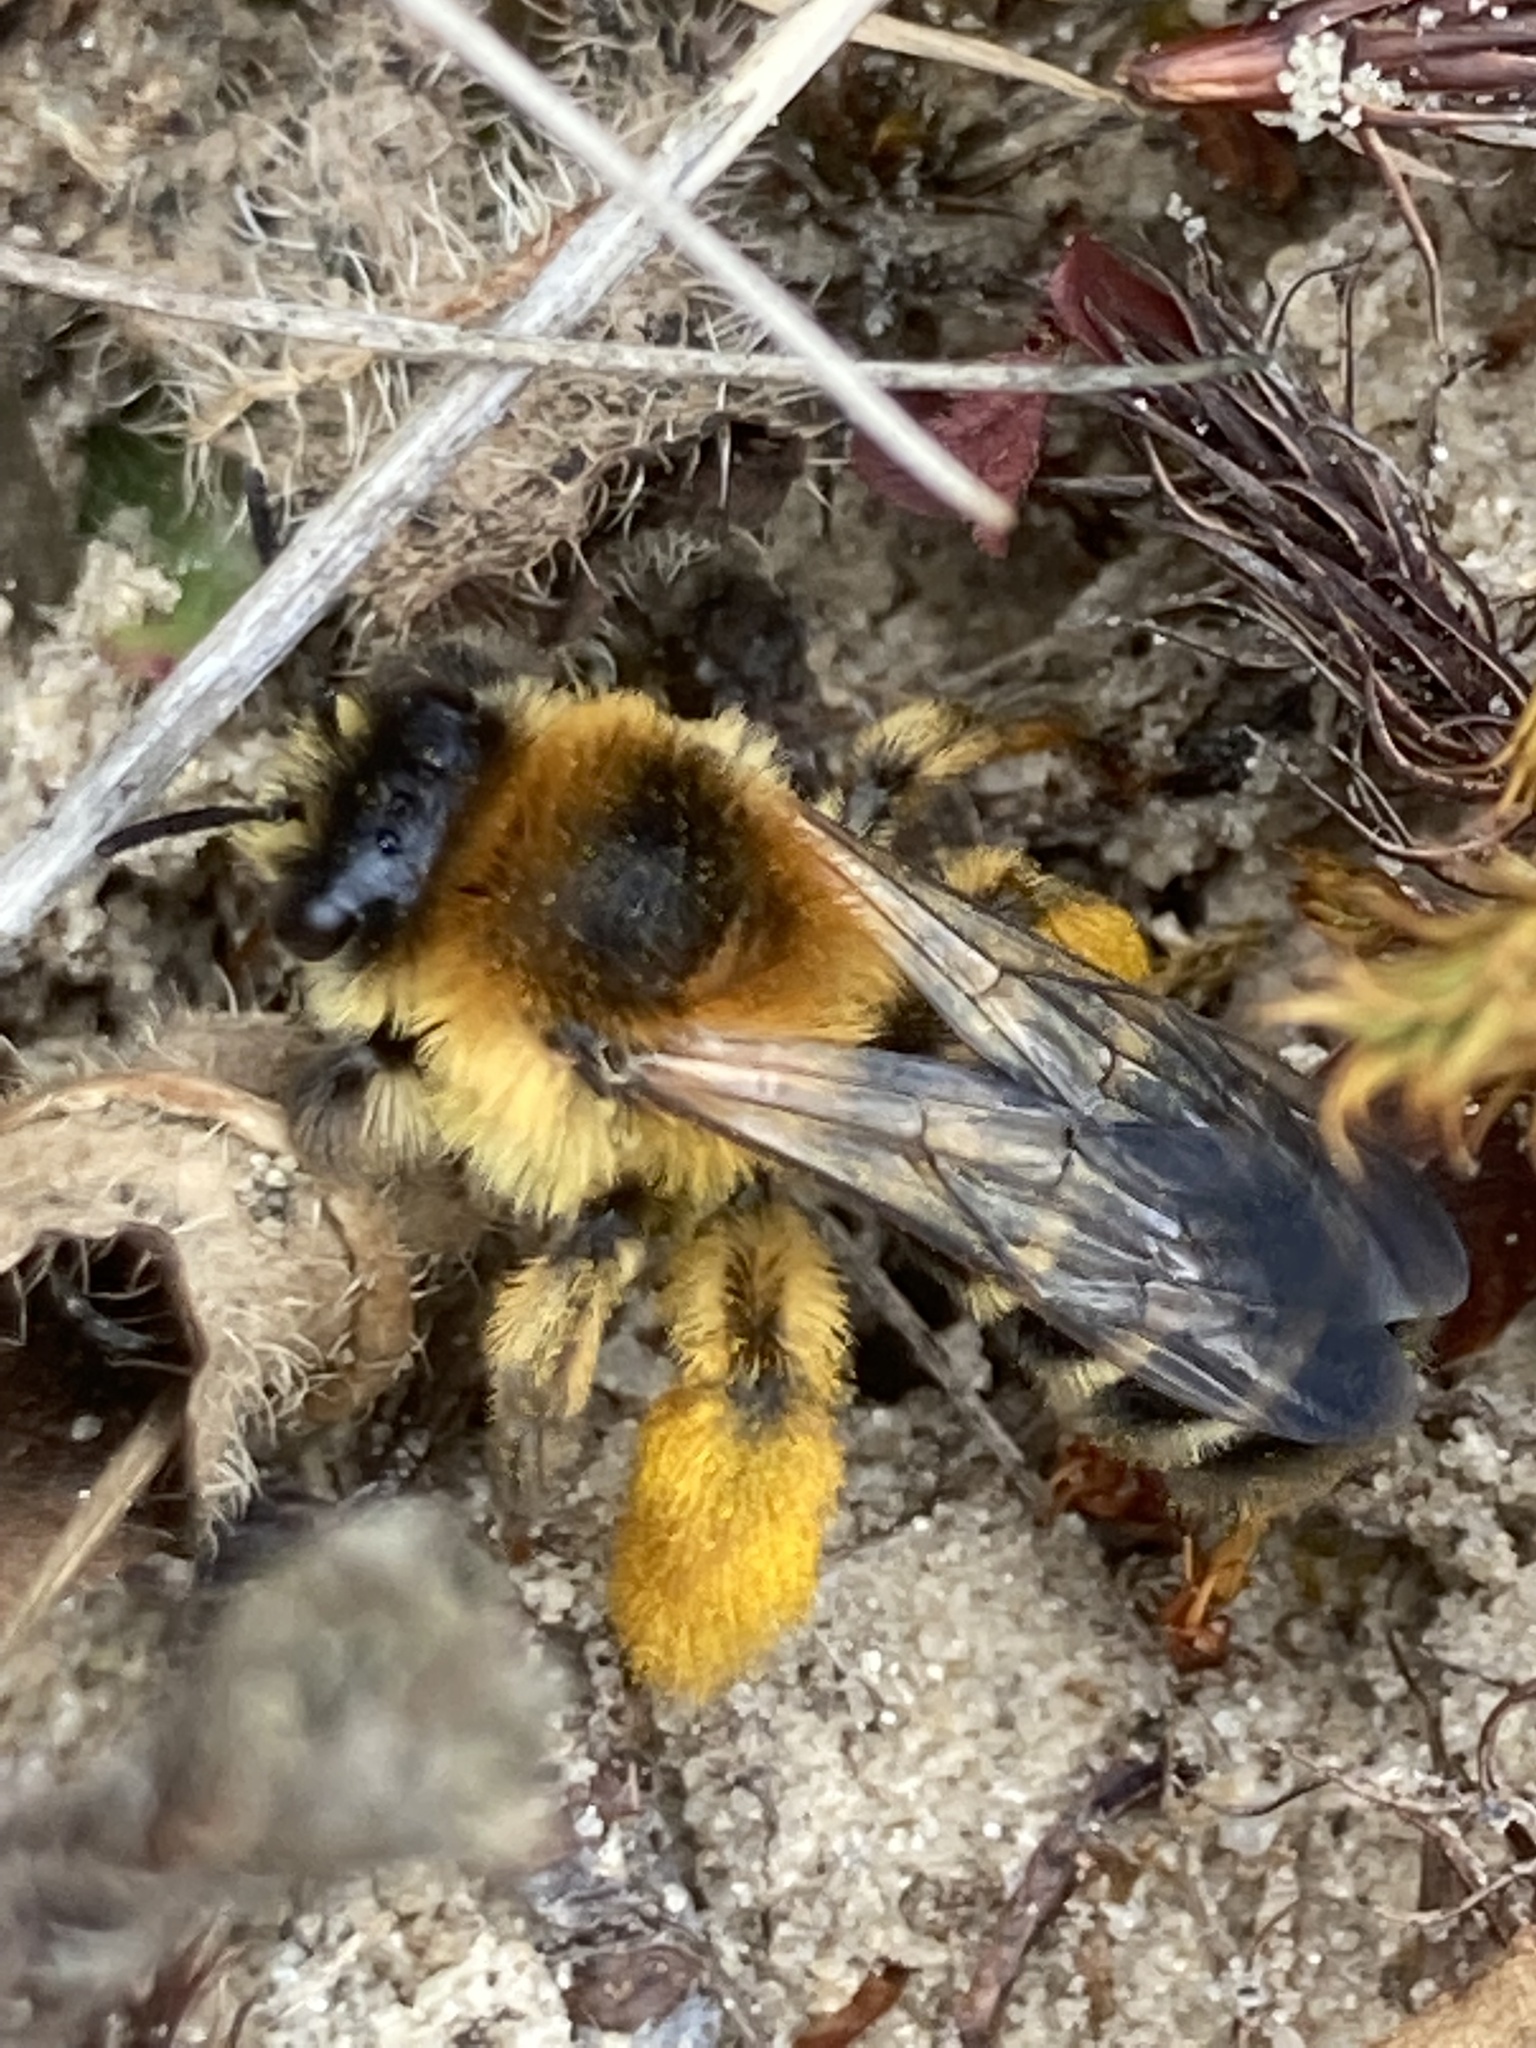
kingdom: Animalia
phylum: Arthropoda
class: Insecta
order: Hymenoptera
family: Melittidae
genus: Dasypoda
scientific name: Dasypoda hirtipes
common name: Pantaloon bee
